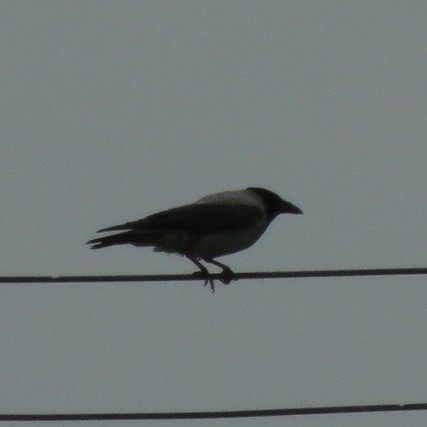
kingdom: Animalia
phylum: Chordata
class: Aves
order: Passeriformes
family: Corvidae
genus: Corvus
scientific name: Corvus cornix
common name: Hooded crow
